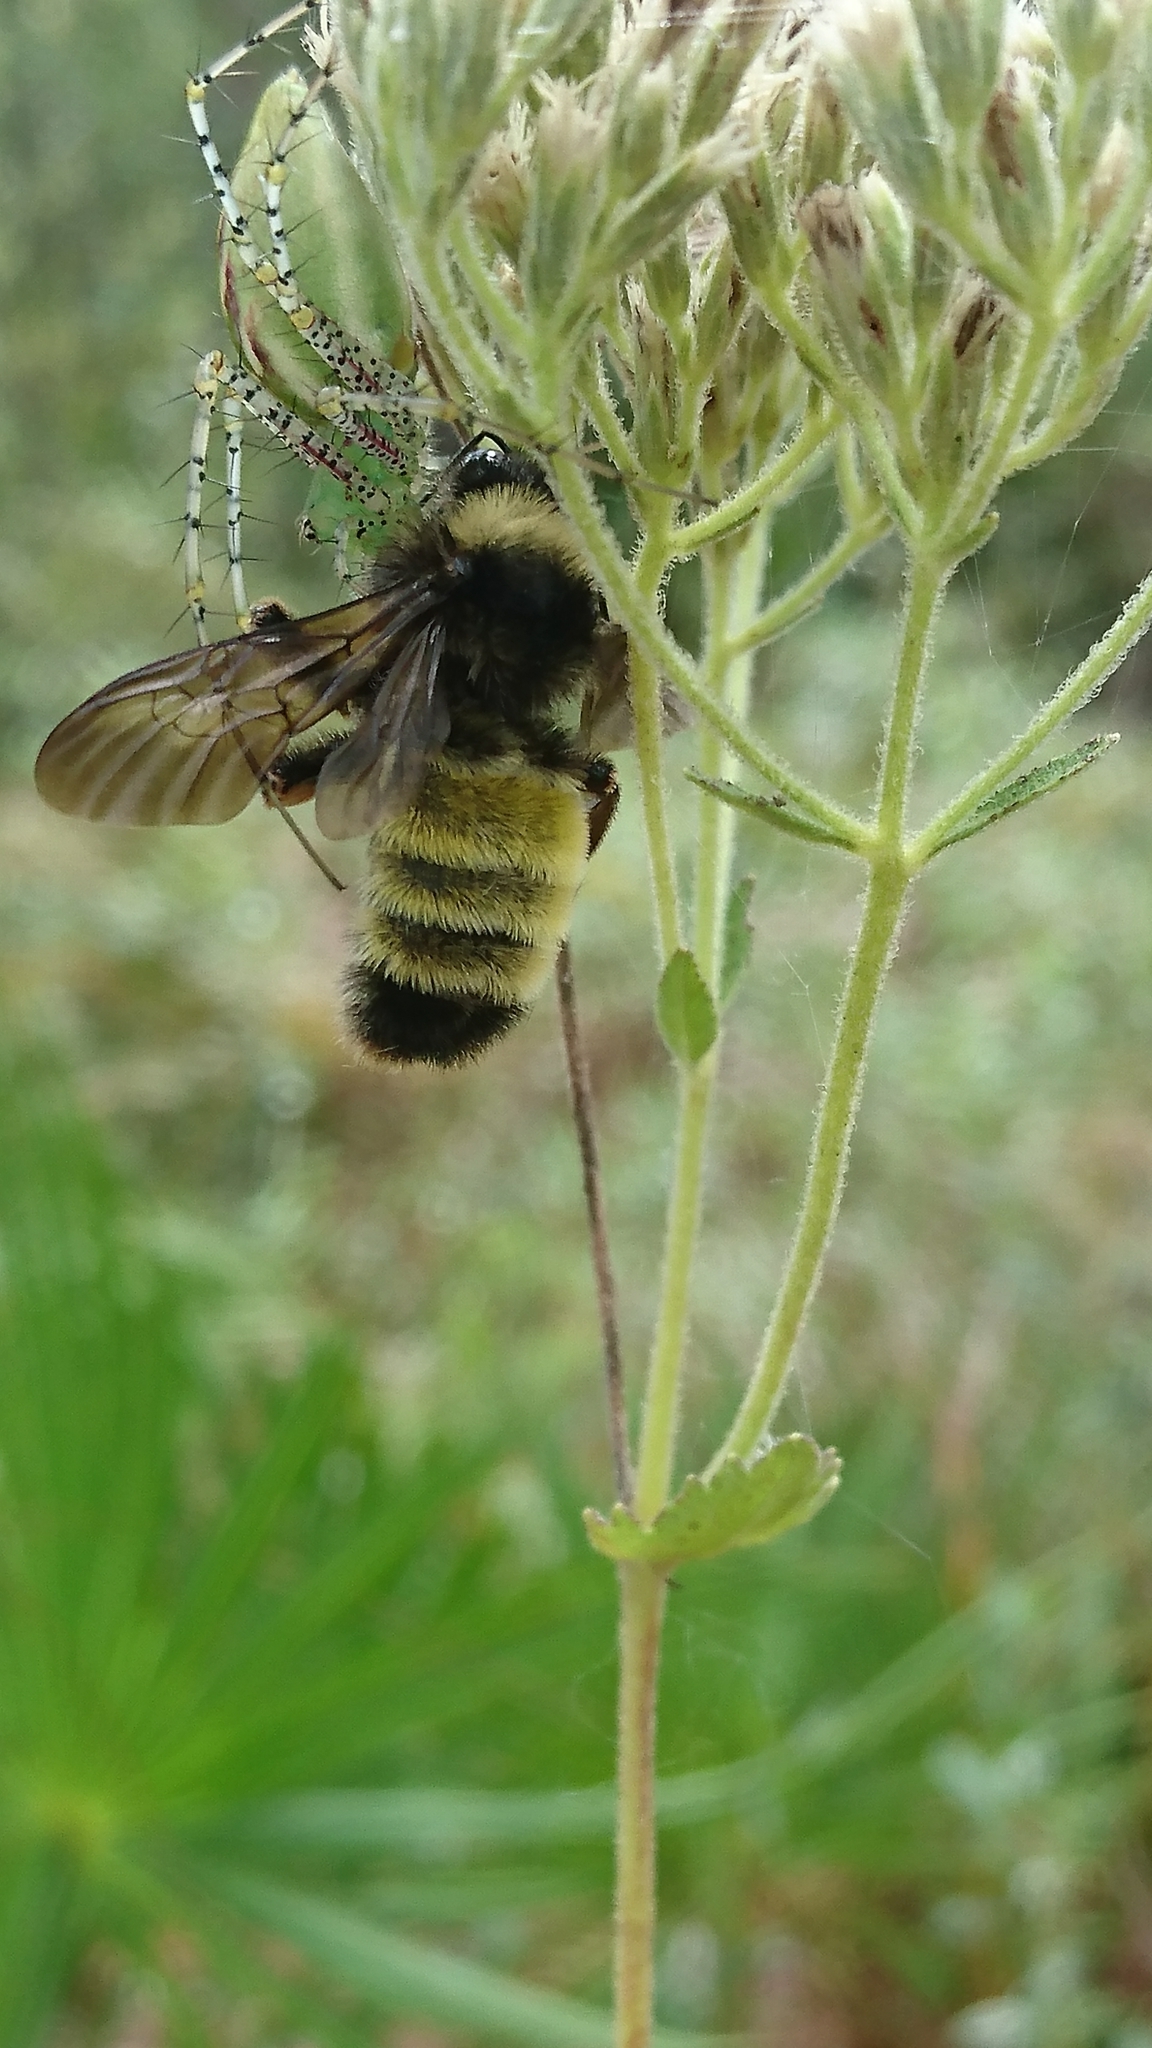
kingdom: Animalia
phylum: Arthropoda
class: Insecta
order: Hymenoptera
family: Apidae
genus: Bombus
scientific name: Bombus pensylvanicus
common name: Bumble bee
